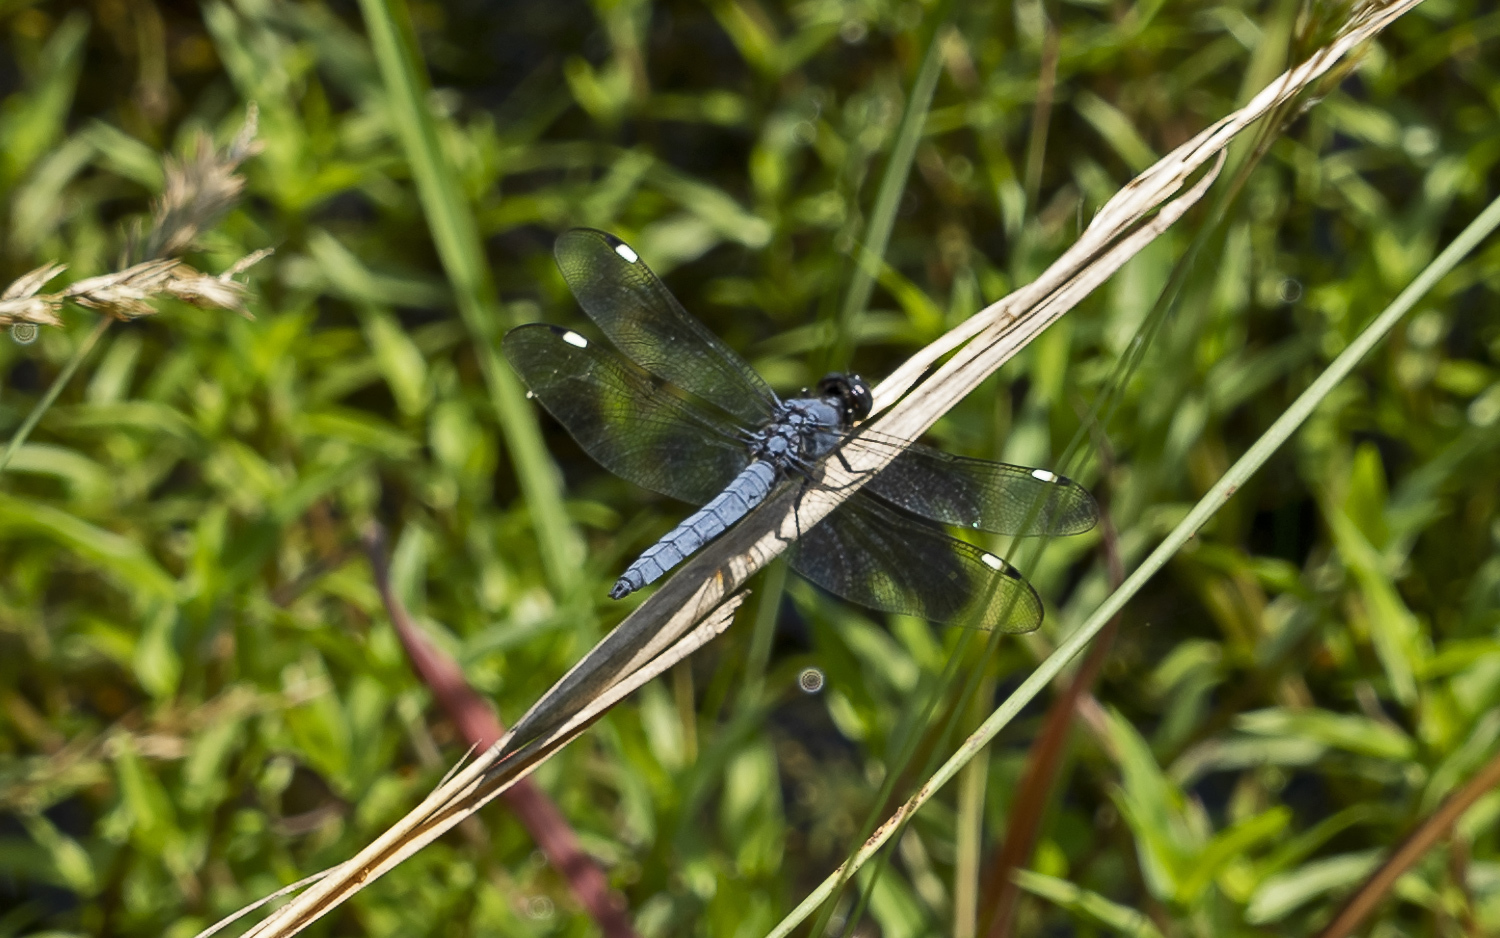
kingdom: Animalia
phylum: Arthropoda
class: Insecta
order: Odonata
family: Libellulidae
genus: Libellula
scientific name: Libellula cyanea
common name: Spangled skimmer
